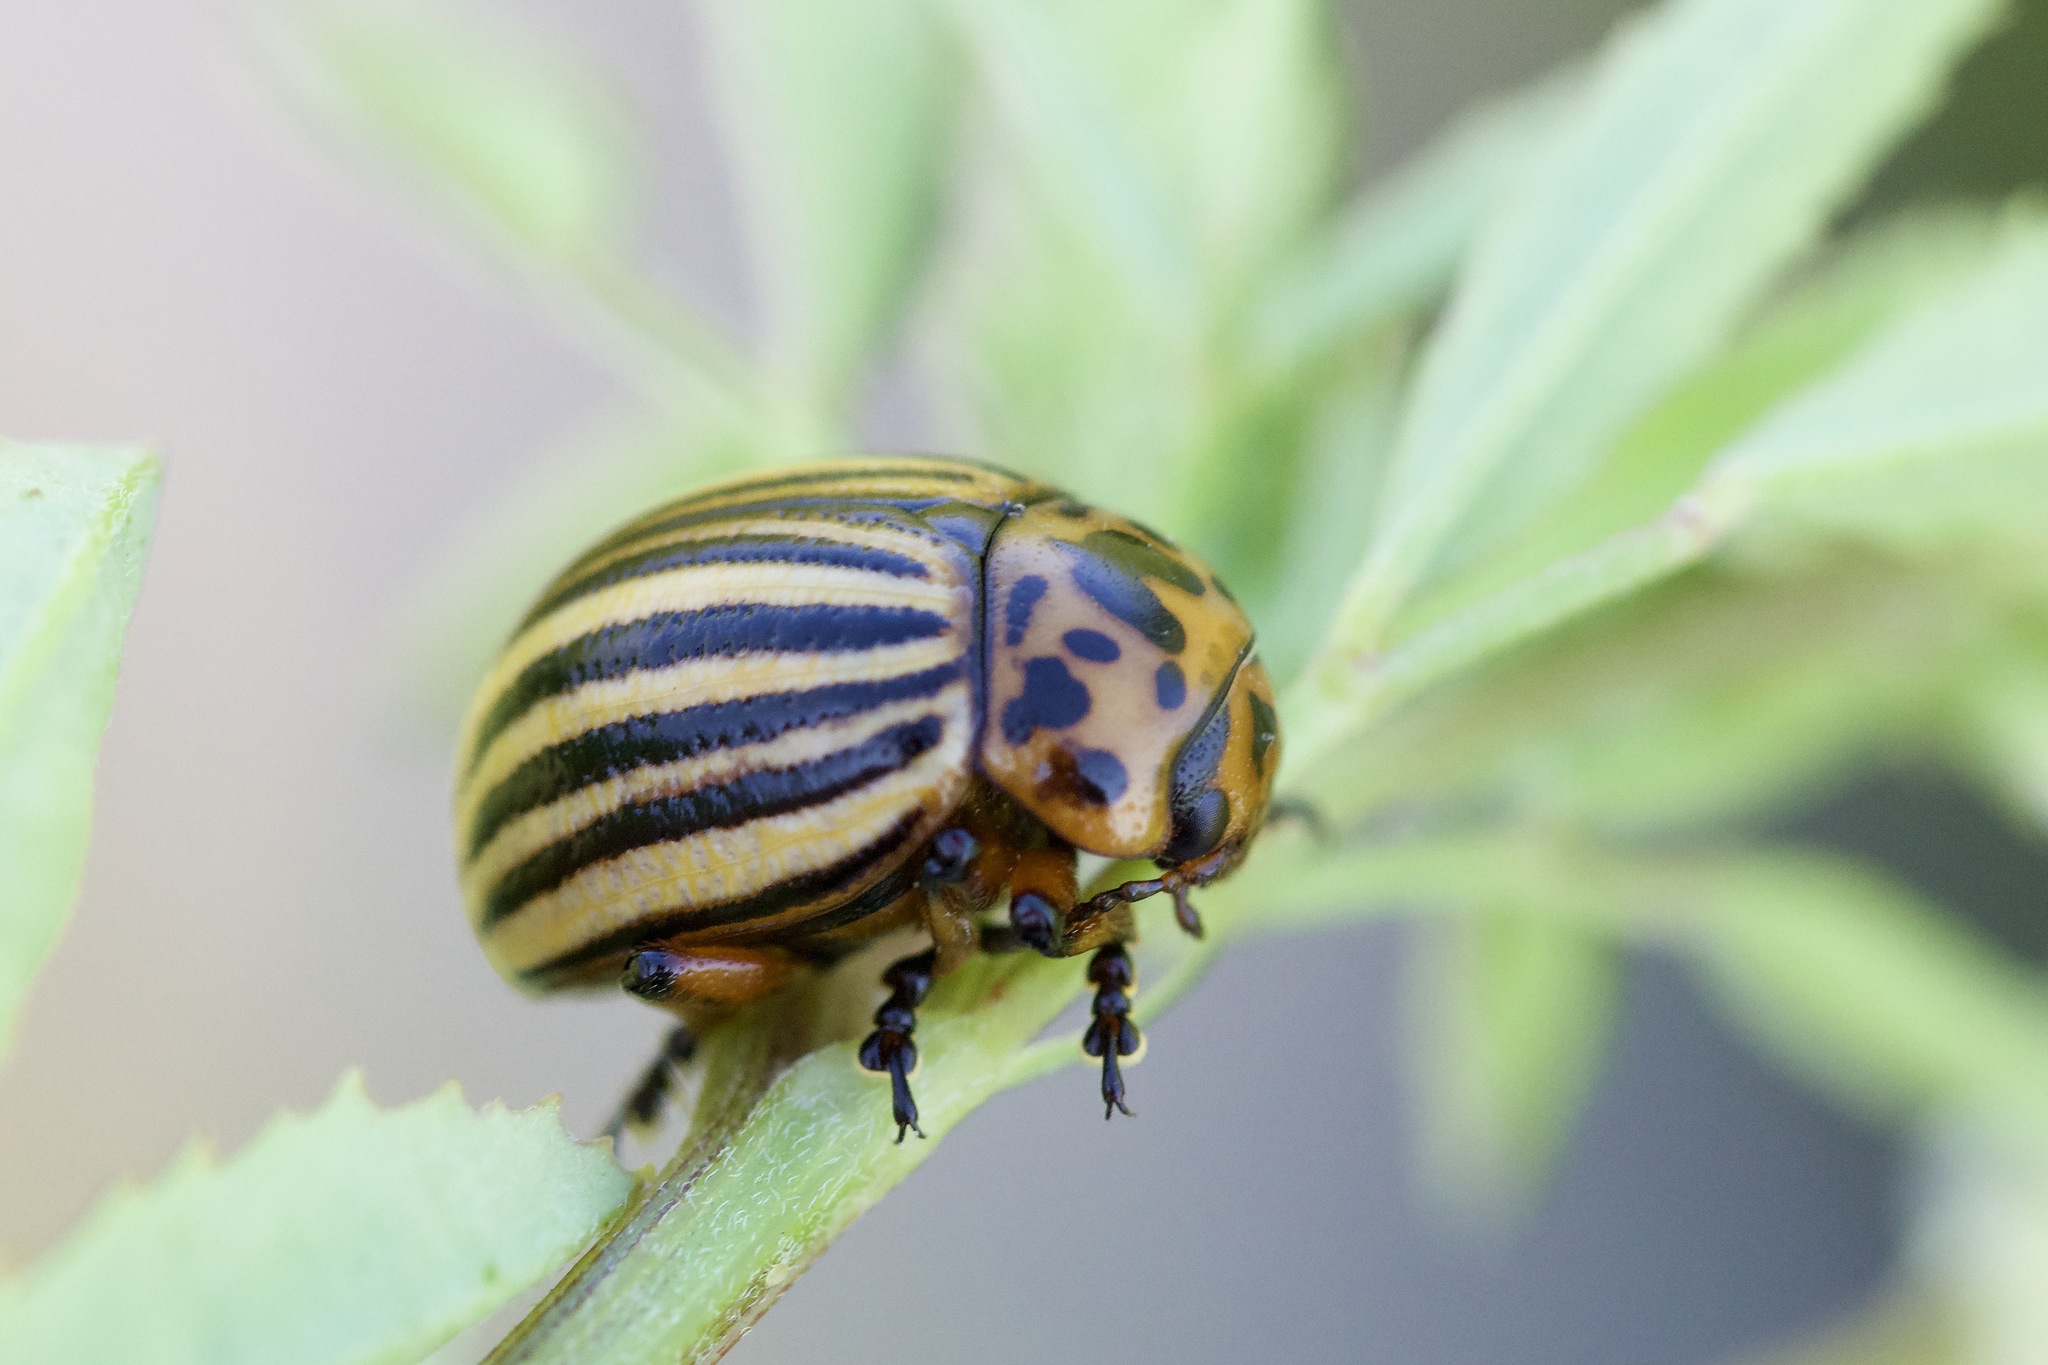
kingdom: Animalia
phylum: Arthropoda
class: Insecta
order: Coleoptera
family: Chrysomelidae
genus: Leptinotarsa
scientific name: Leptinotarsa decemlineata
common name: Colorado potato beetle
